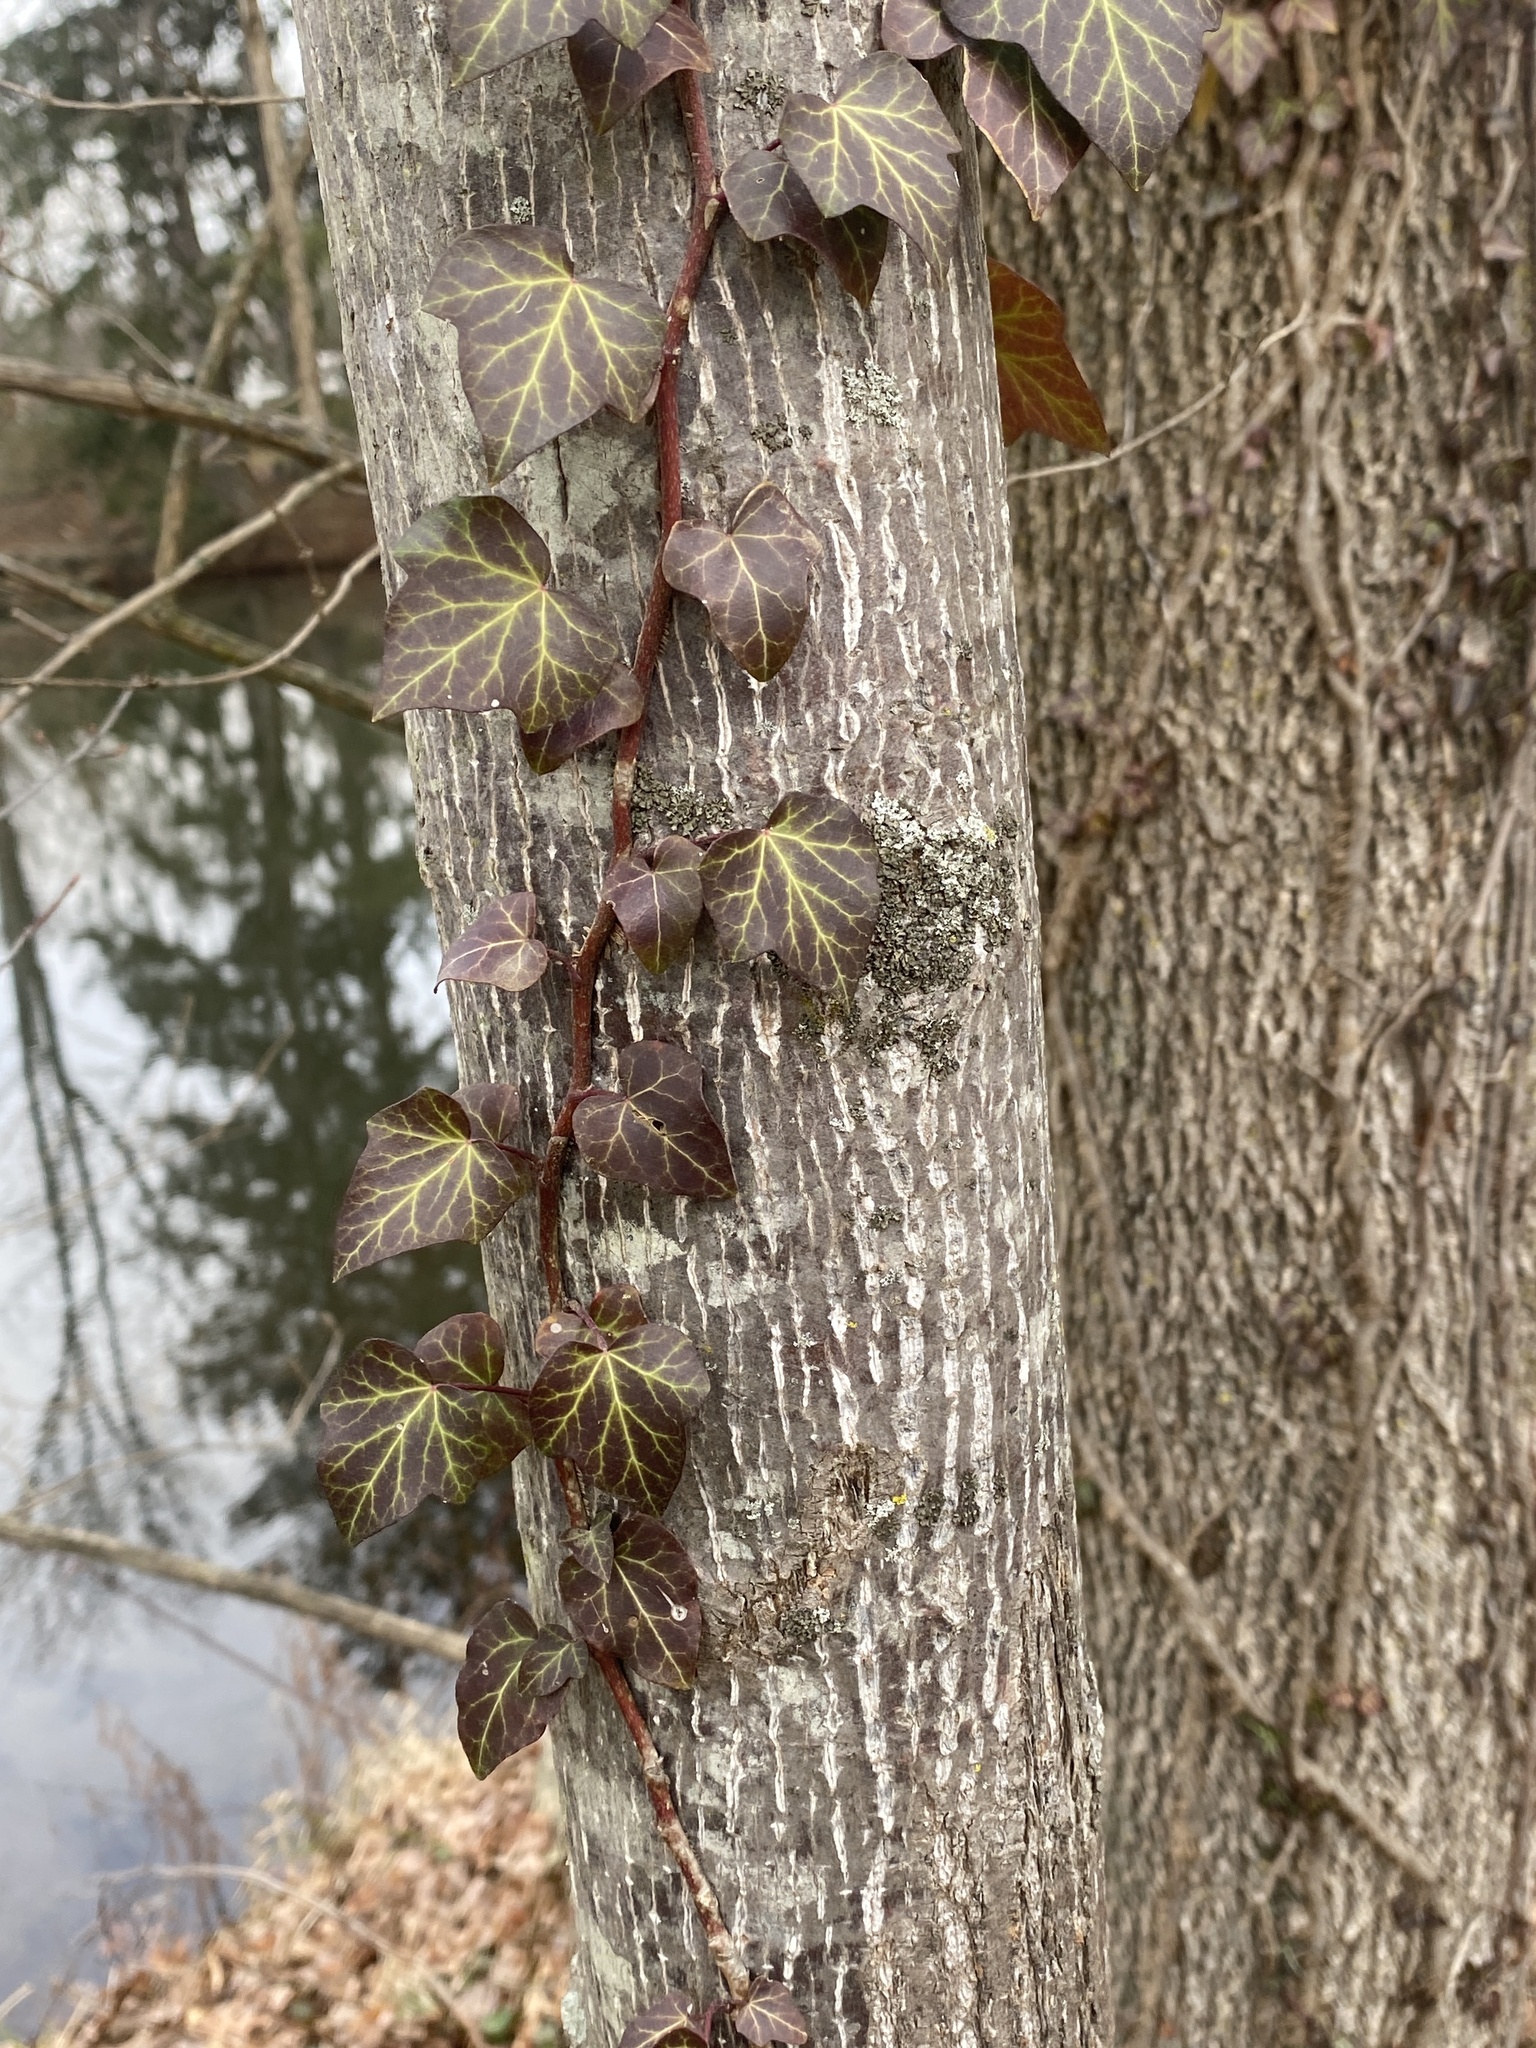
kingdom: Plantae
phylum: Tracheophyta
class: Magnoliopsida
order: Apiales
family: Araliaceae
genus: Hedera
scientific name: Hedera
